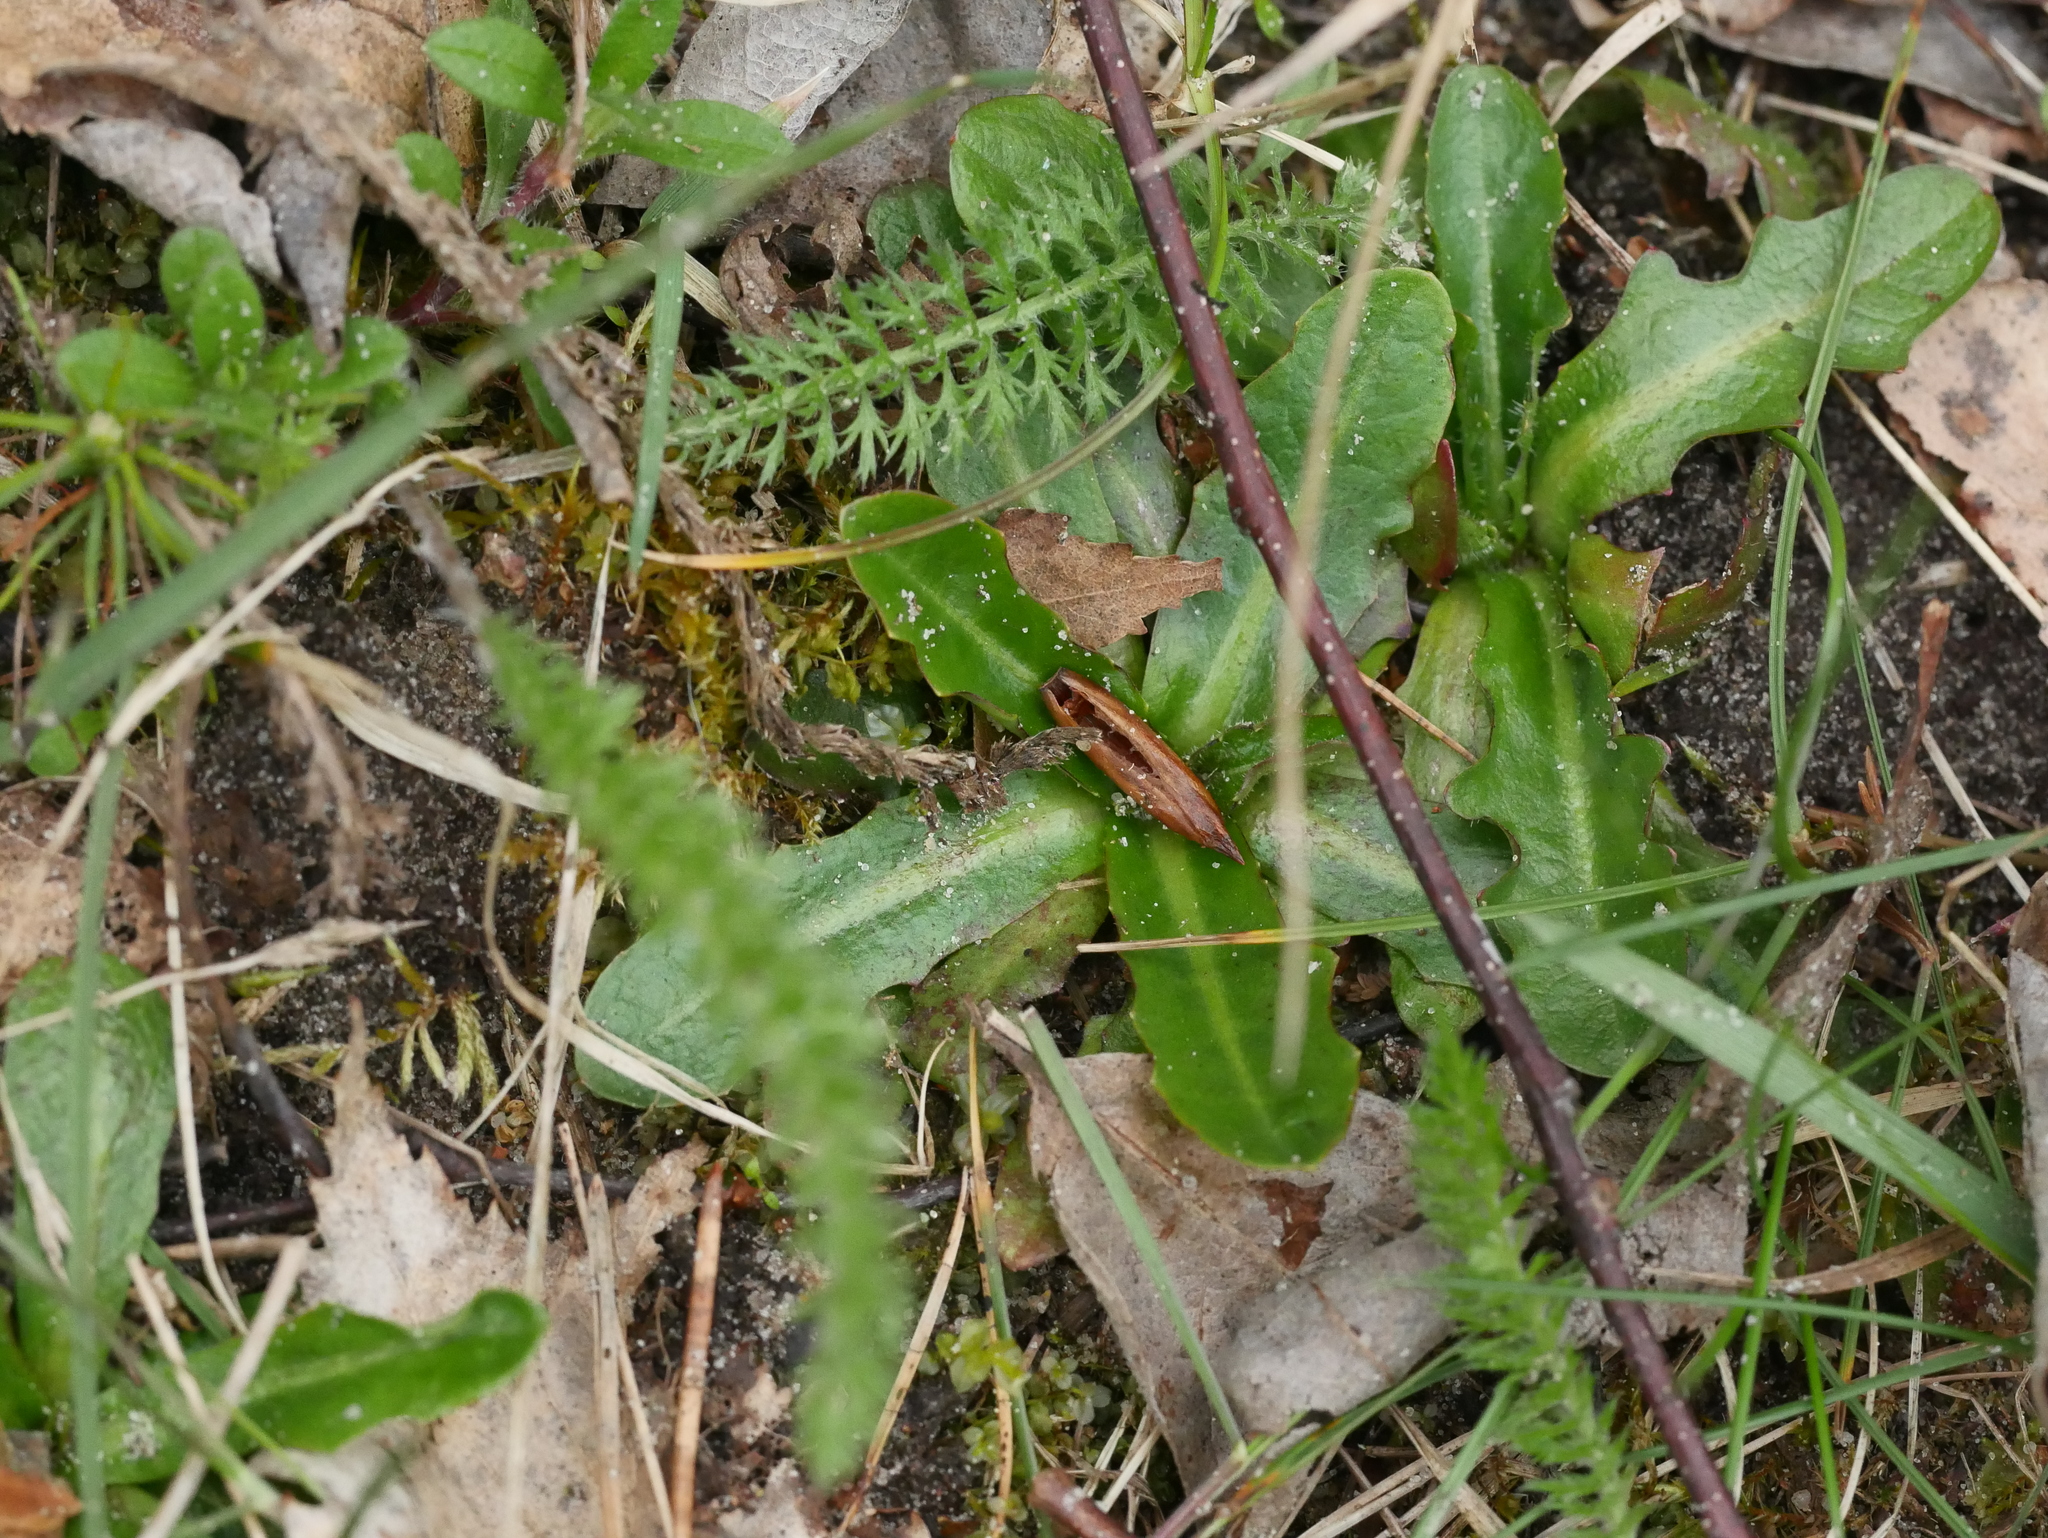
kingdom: Plantae
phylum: Tracheophyta
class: Magnoliopsida
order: Asterales
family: Asteraceae
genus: Achillea
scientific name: Achillea millefolium
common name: Yarrow
